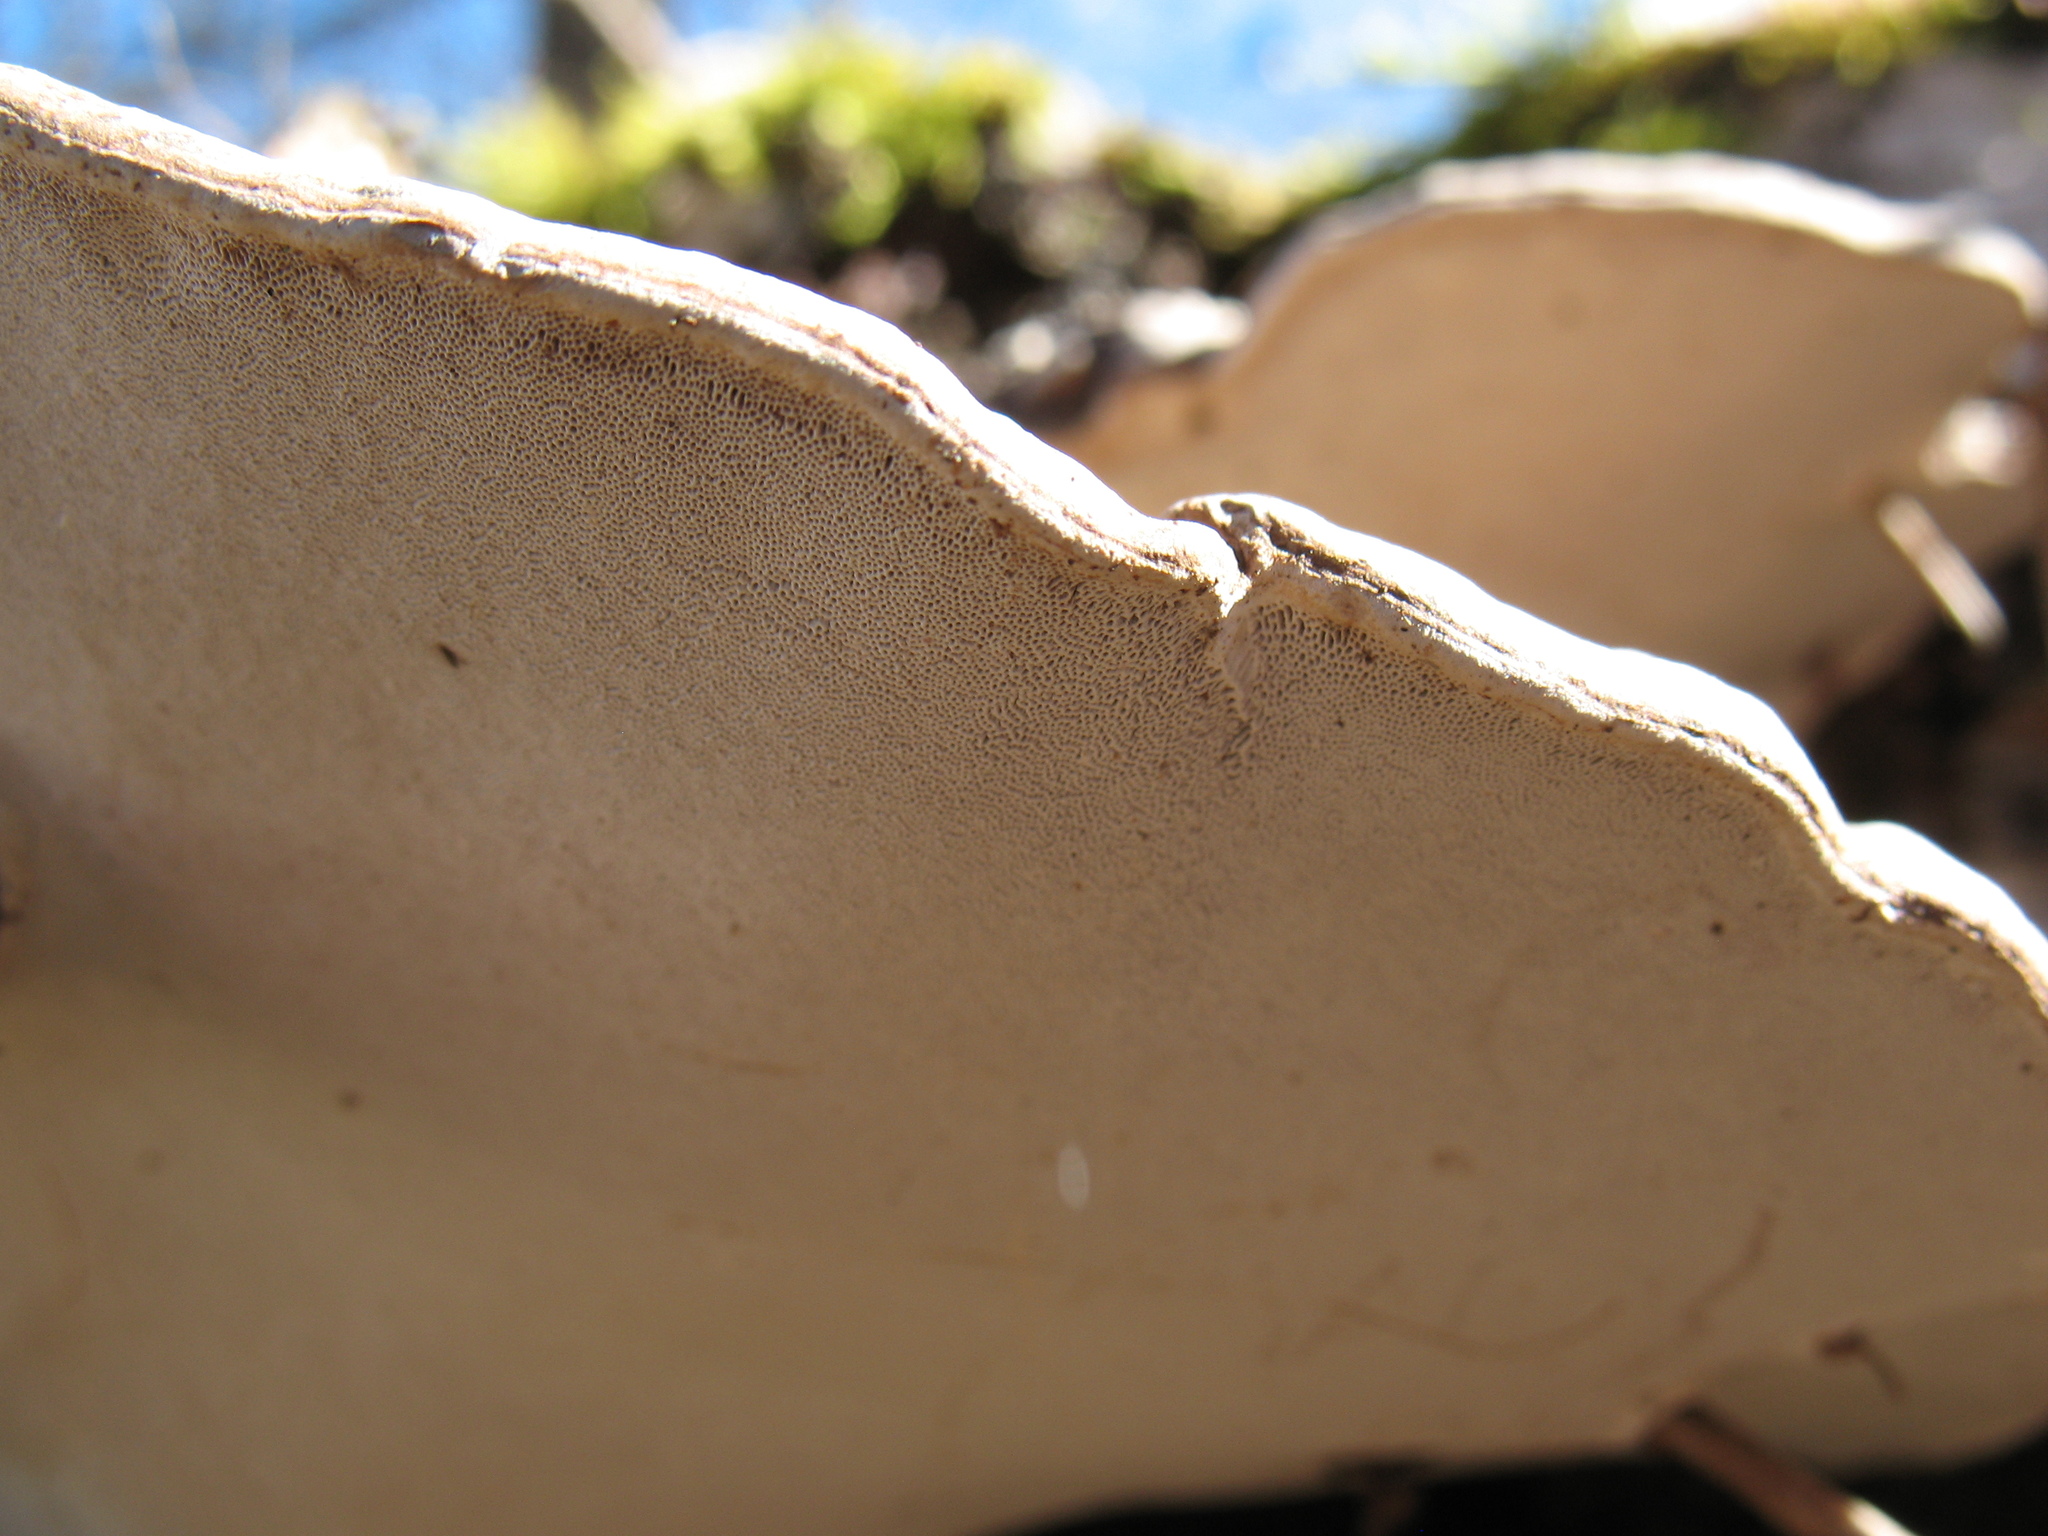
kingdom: Fungi
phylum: Basidiomycota
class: Agaricomycetes
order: Polyporales
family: Polyporaceae
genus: Ganoderma
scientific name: Ganoderma applanatum
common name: Artist's bracket
